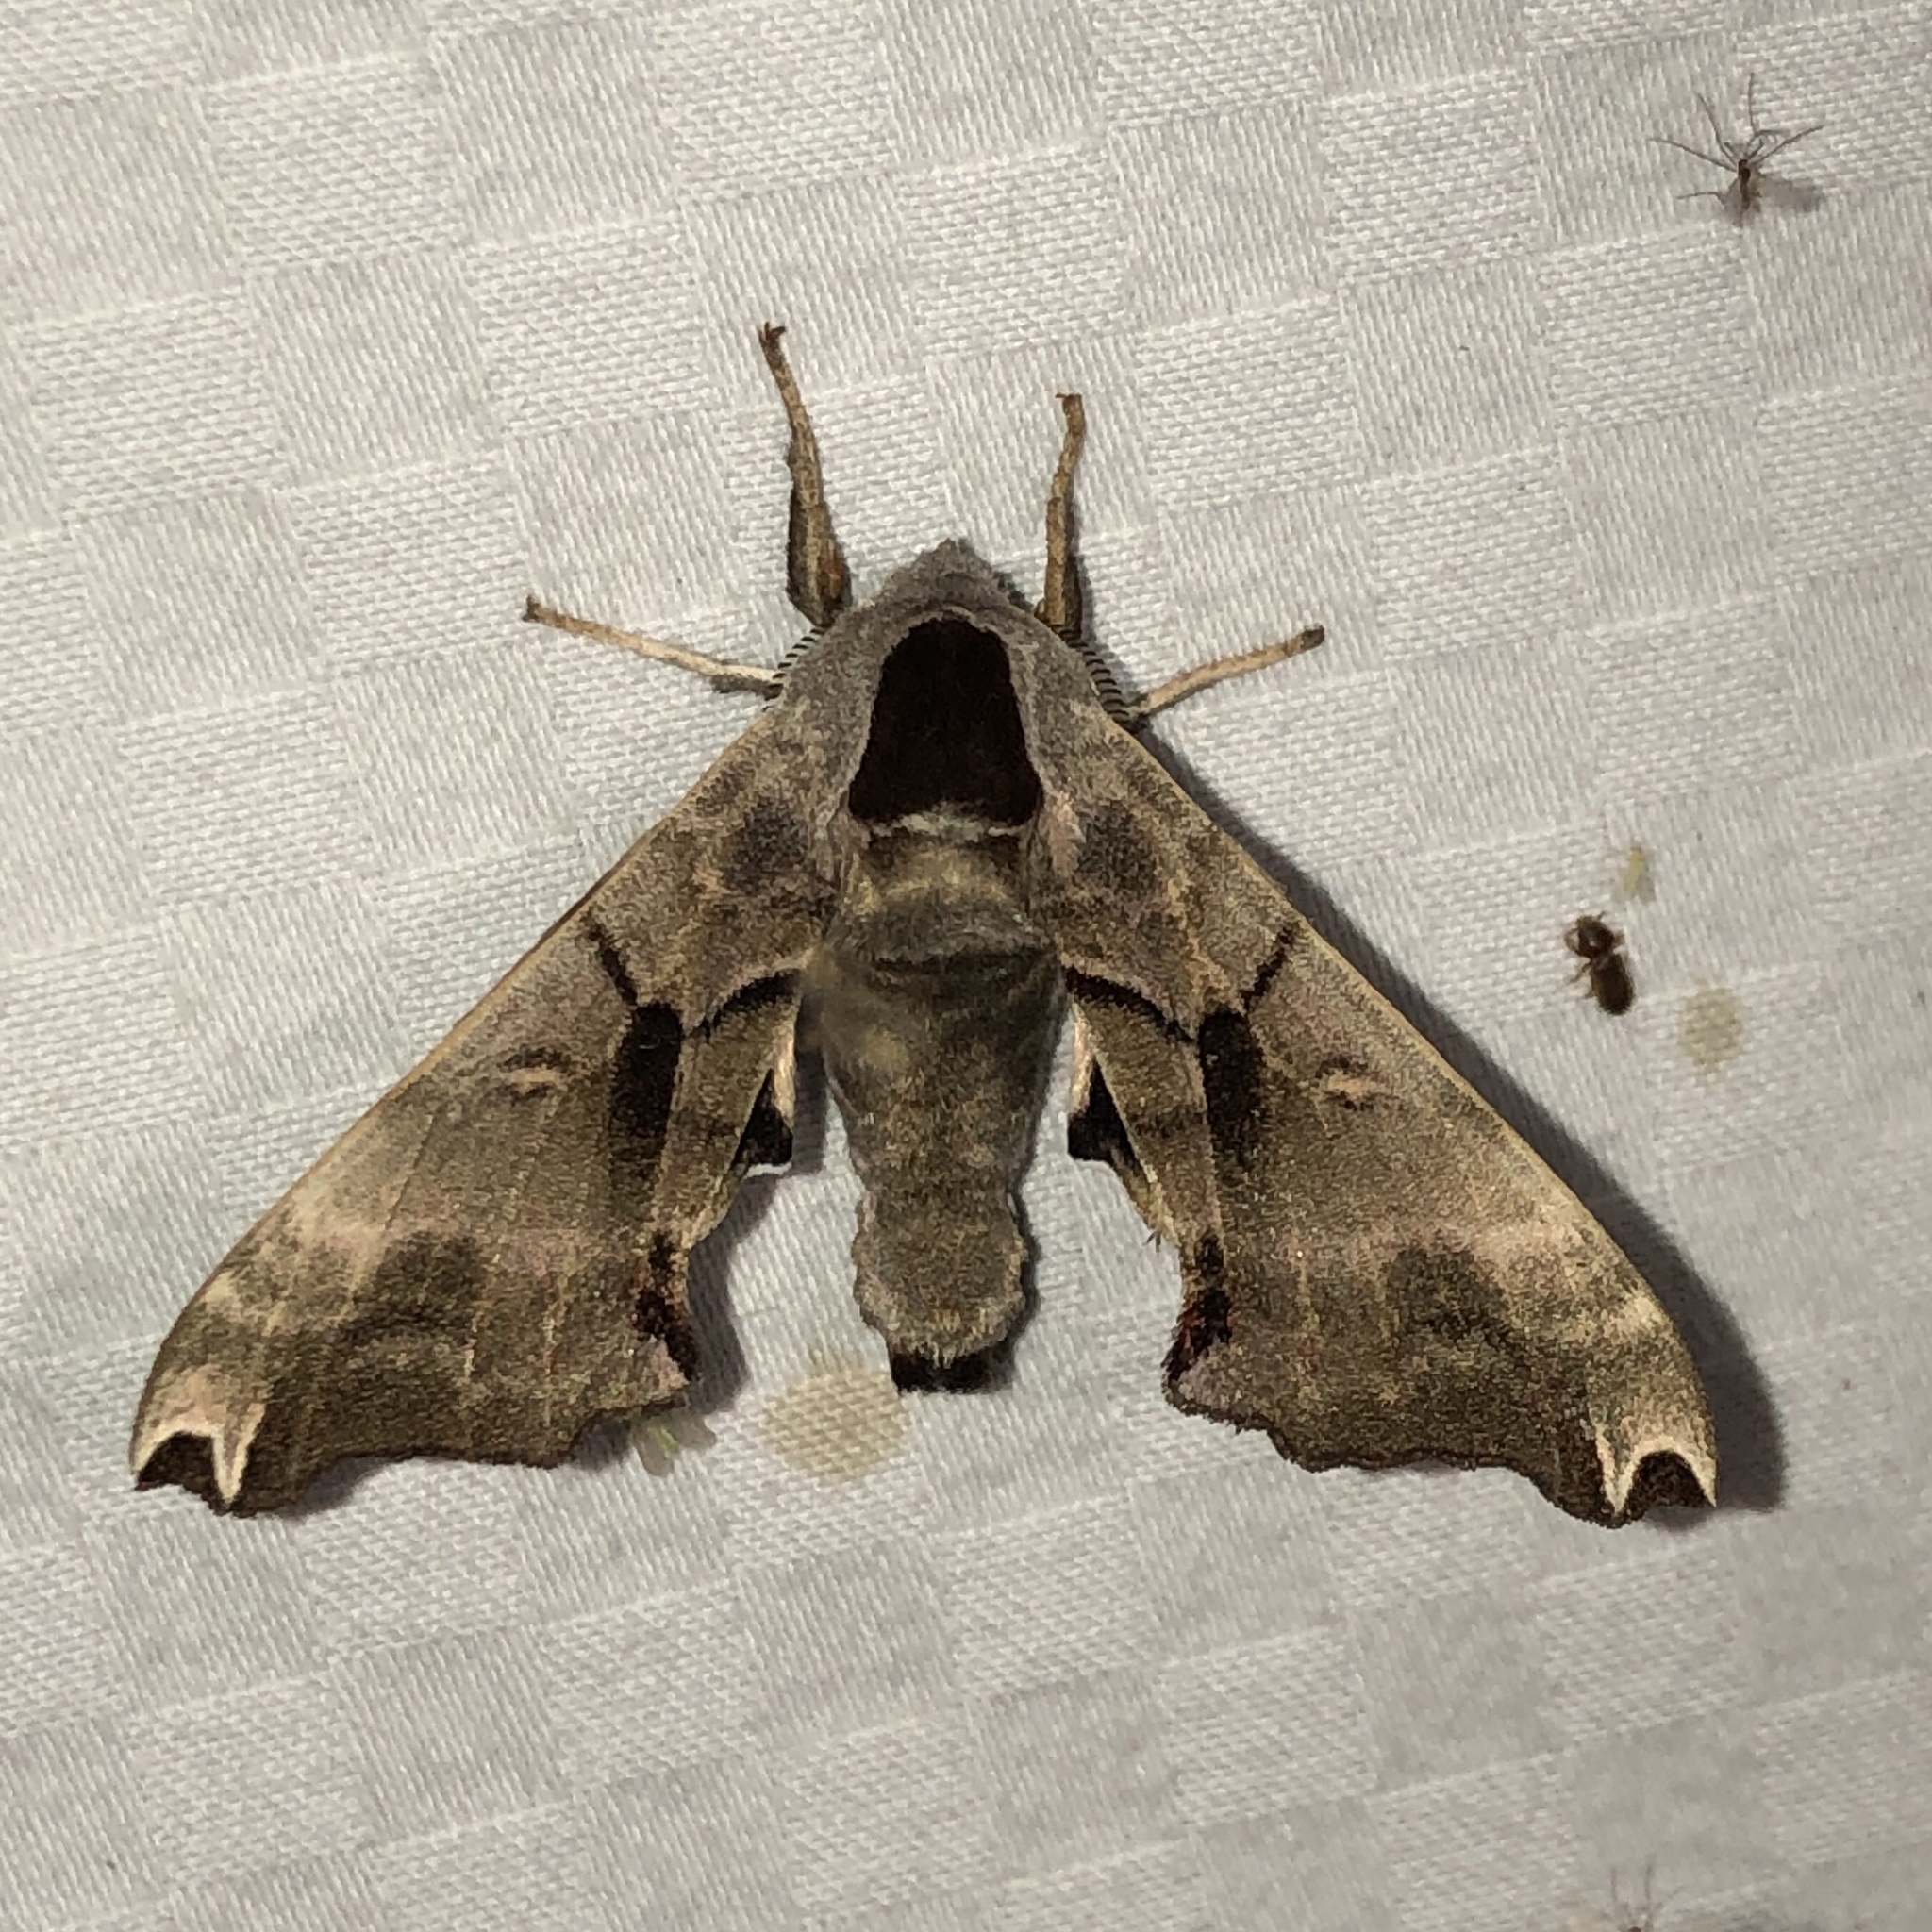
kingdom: Animalia
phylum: Arthropoda
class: Insecta
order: Lepidoptera
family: Sphingidae
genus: Smerinthus
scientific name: Smerinthus jamaicensis
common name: Twin spotted sphinx
